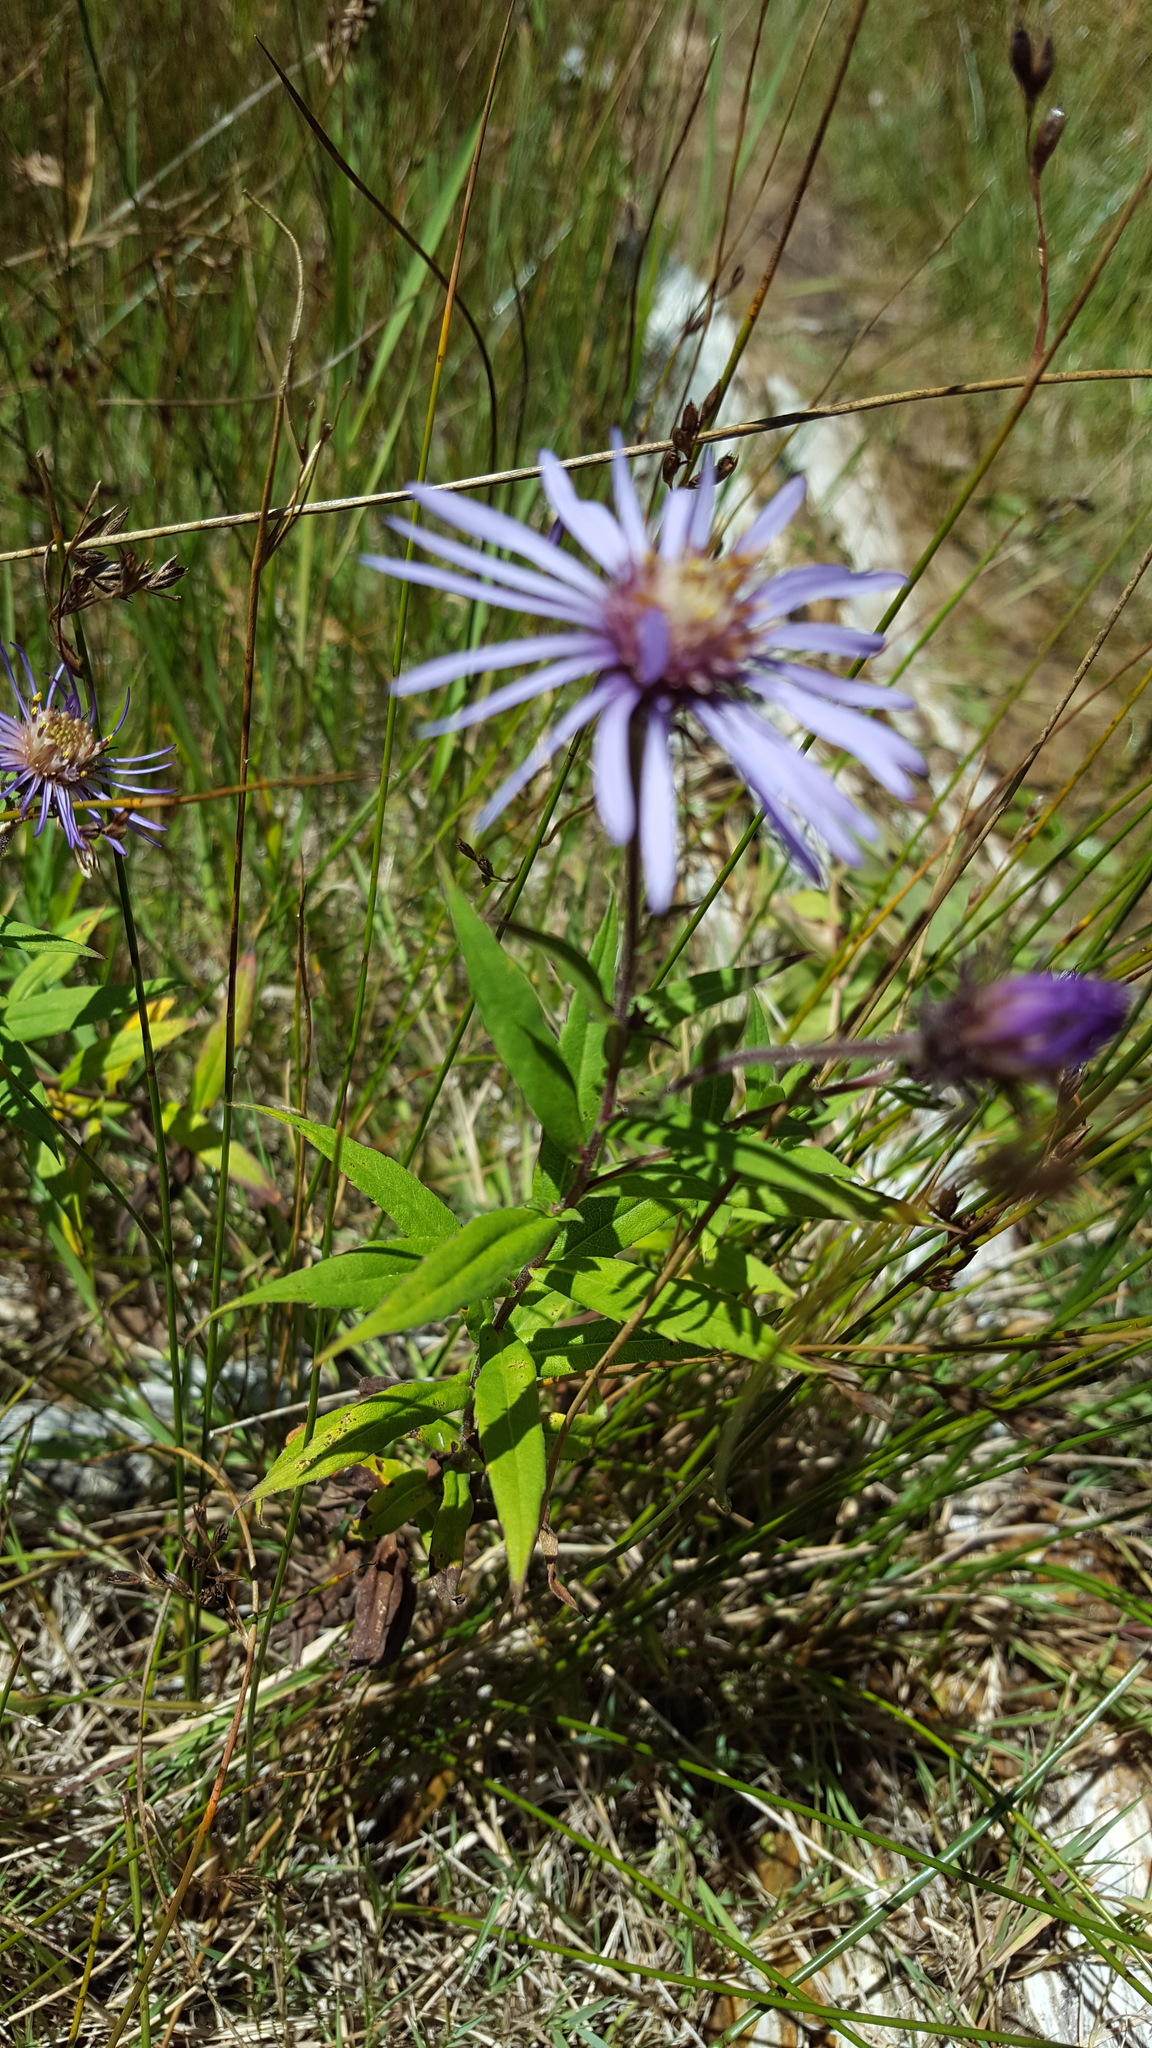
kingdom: Plantae
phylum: Tracheophyta
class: Magnoliopsida
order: Asterales
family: Asteraceae
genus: Canadanthus
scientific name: Canadanthus modestus
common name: Great northern aster
